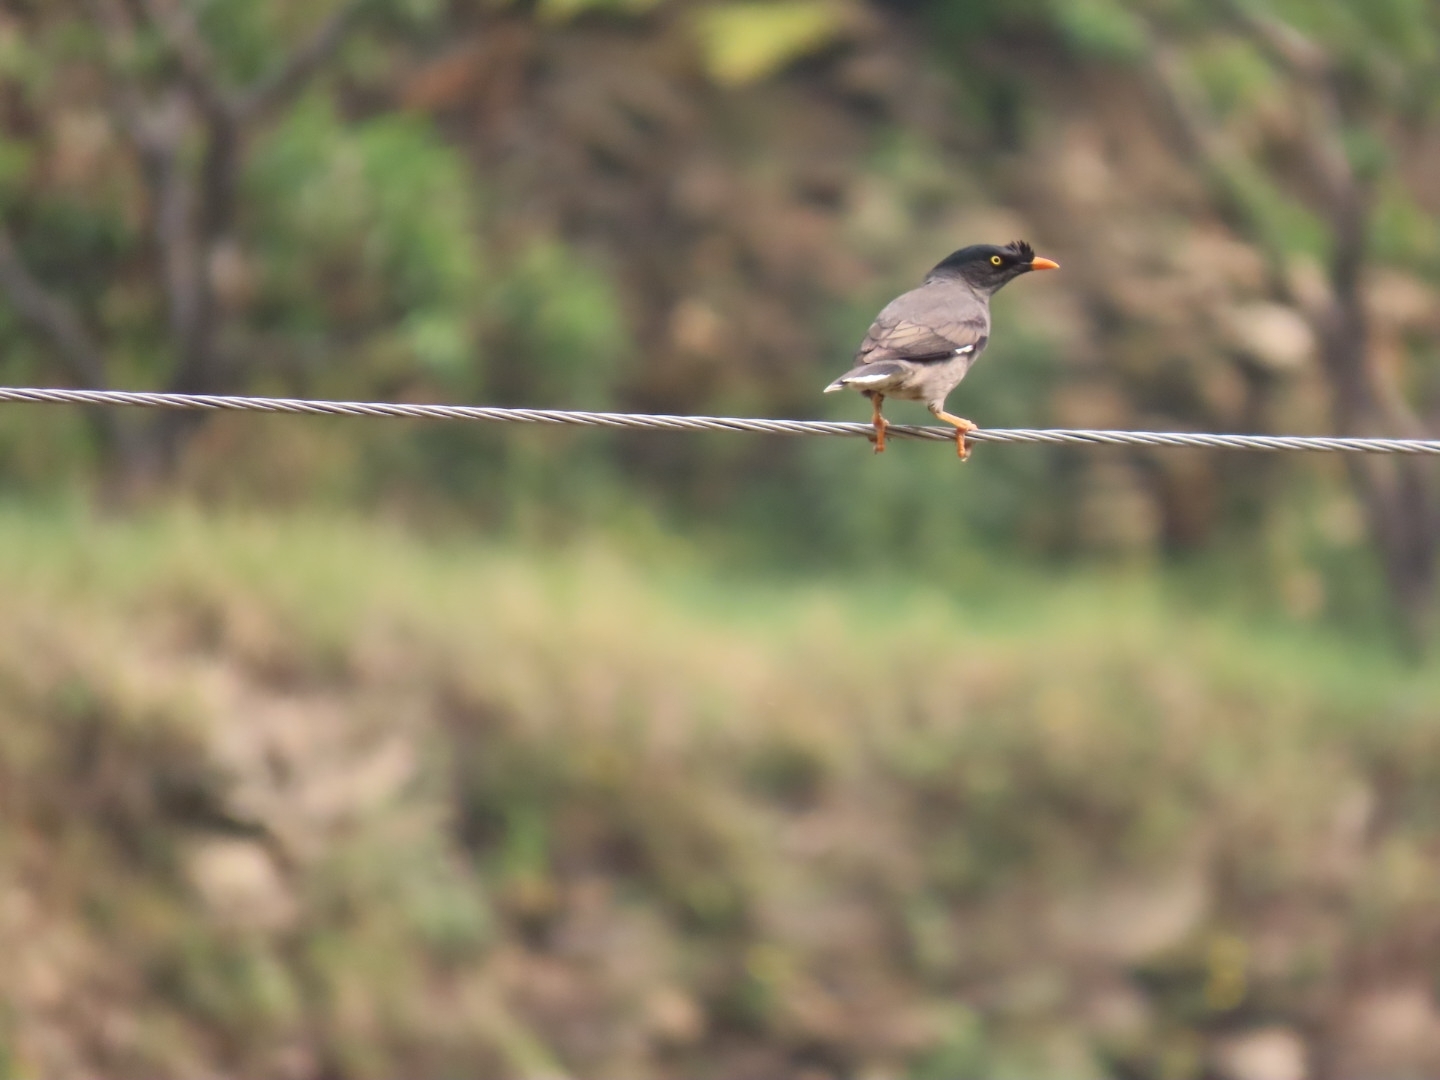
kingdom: Animalia
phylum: Chordata
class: Aves
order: Passeriformes
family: Sturnidae
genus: Acridotheres
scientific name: Acridotheres fuscus
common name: Jungle myna
